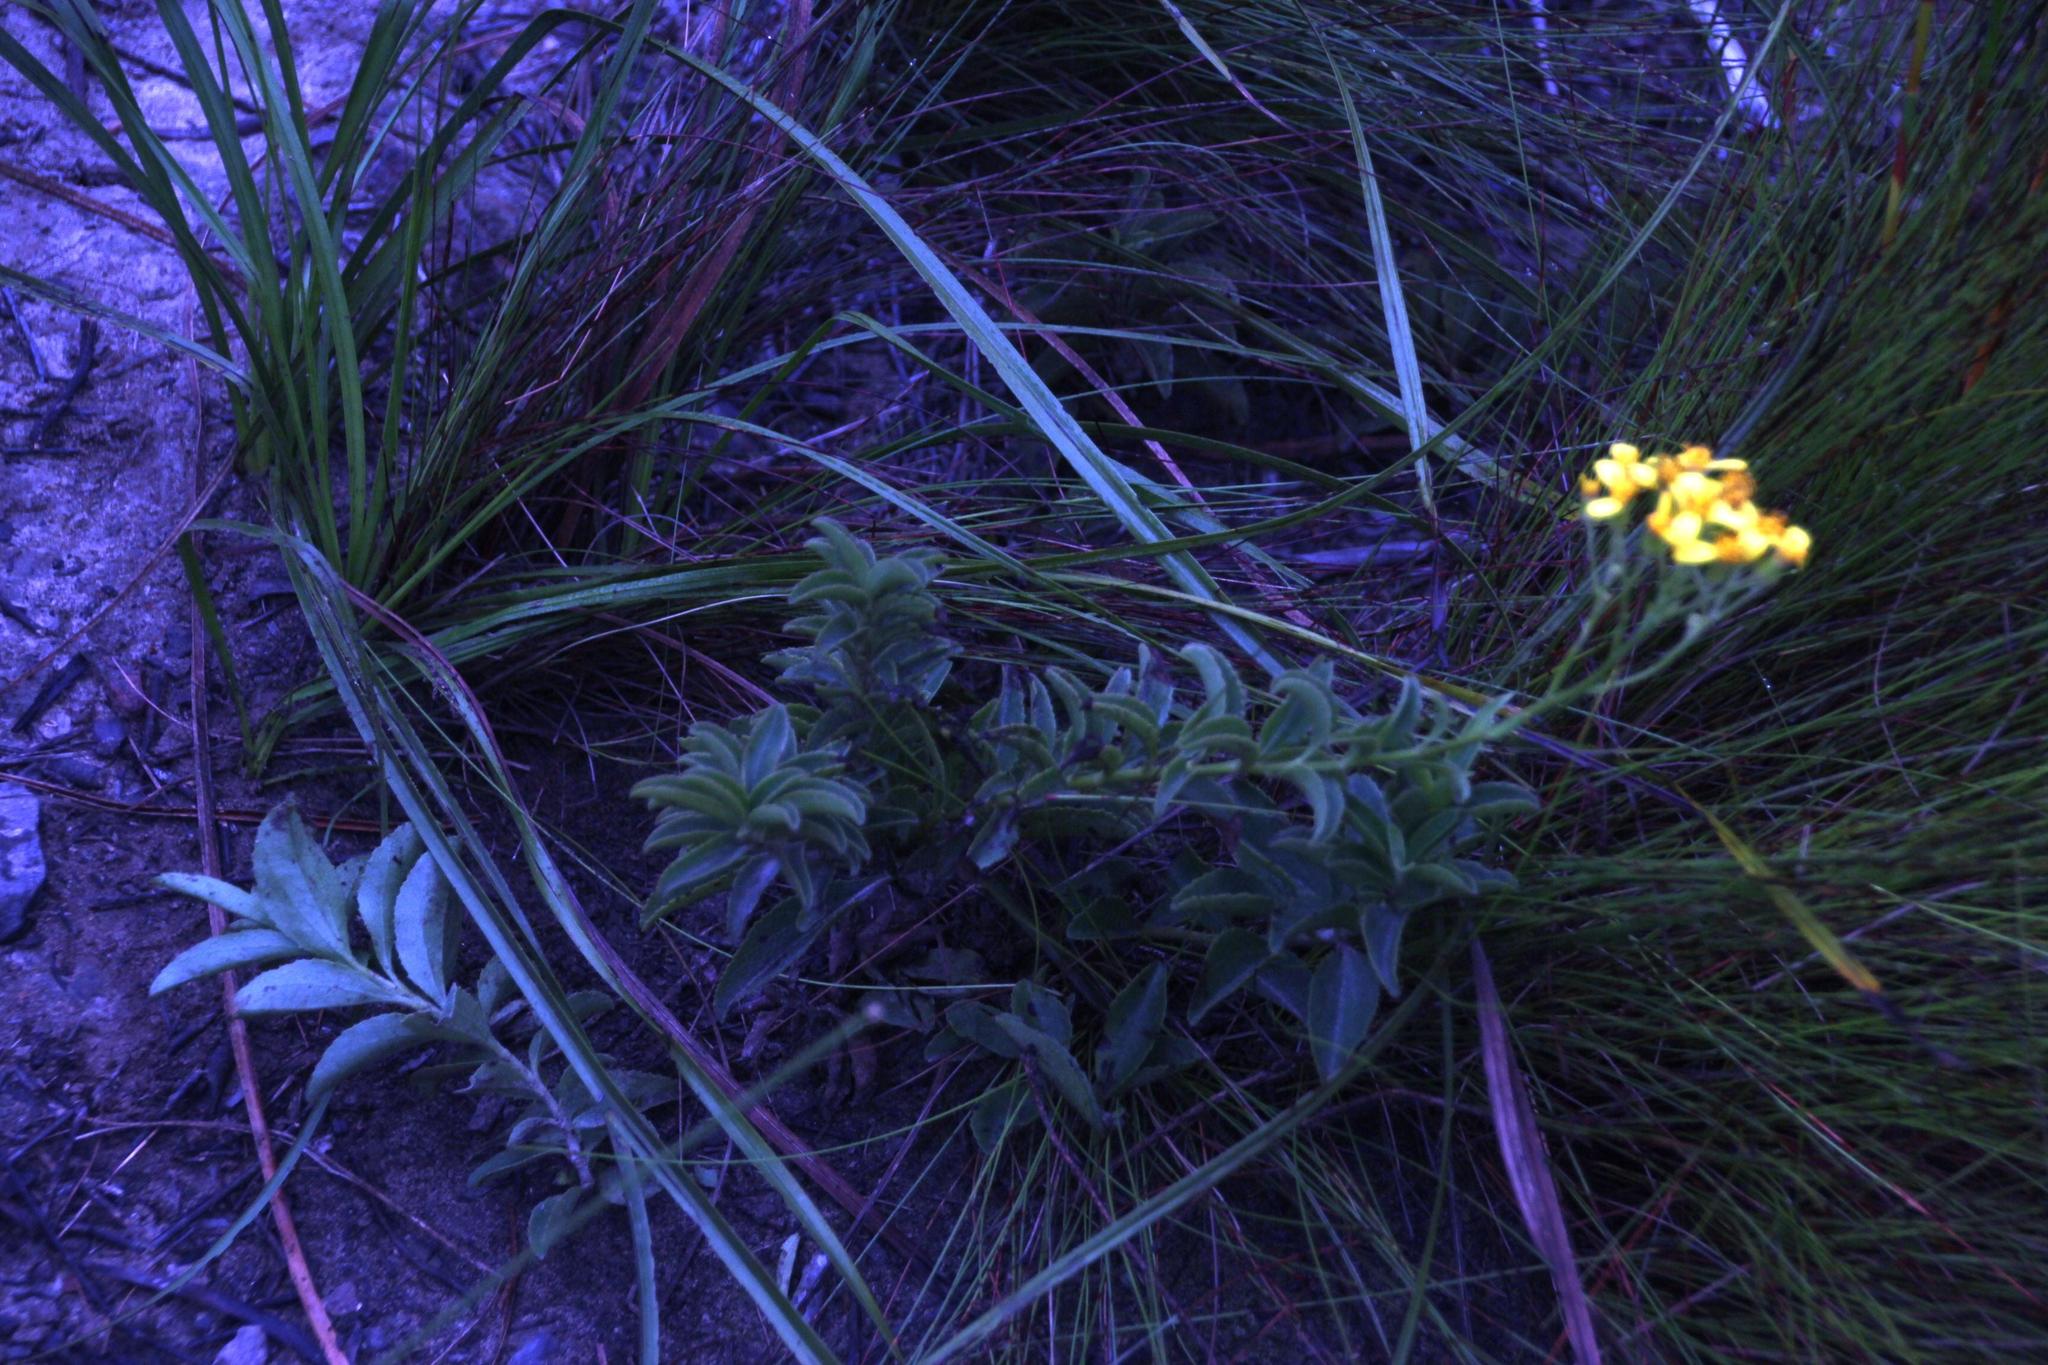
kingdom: Plantae
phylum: Tracheophyta
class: Magnoliopsida
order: Asterales
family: Asteraceae
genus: Senecio
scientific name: Senecio crenatus
